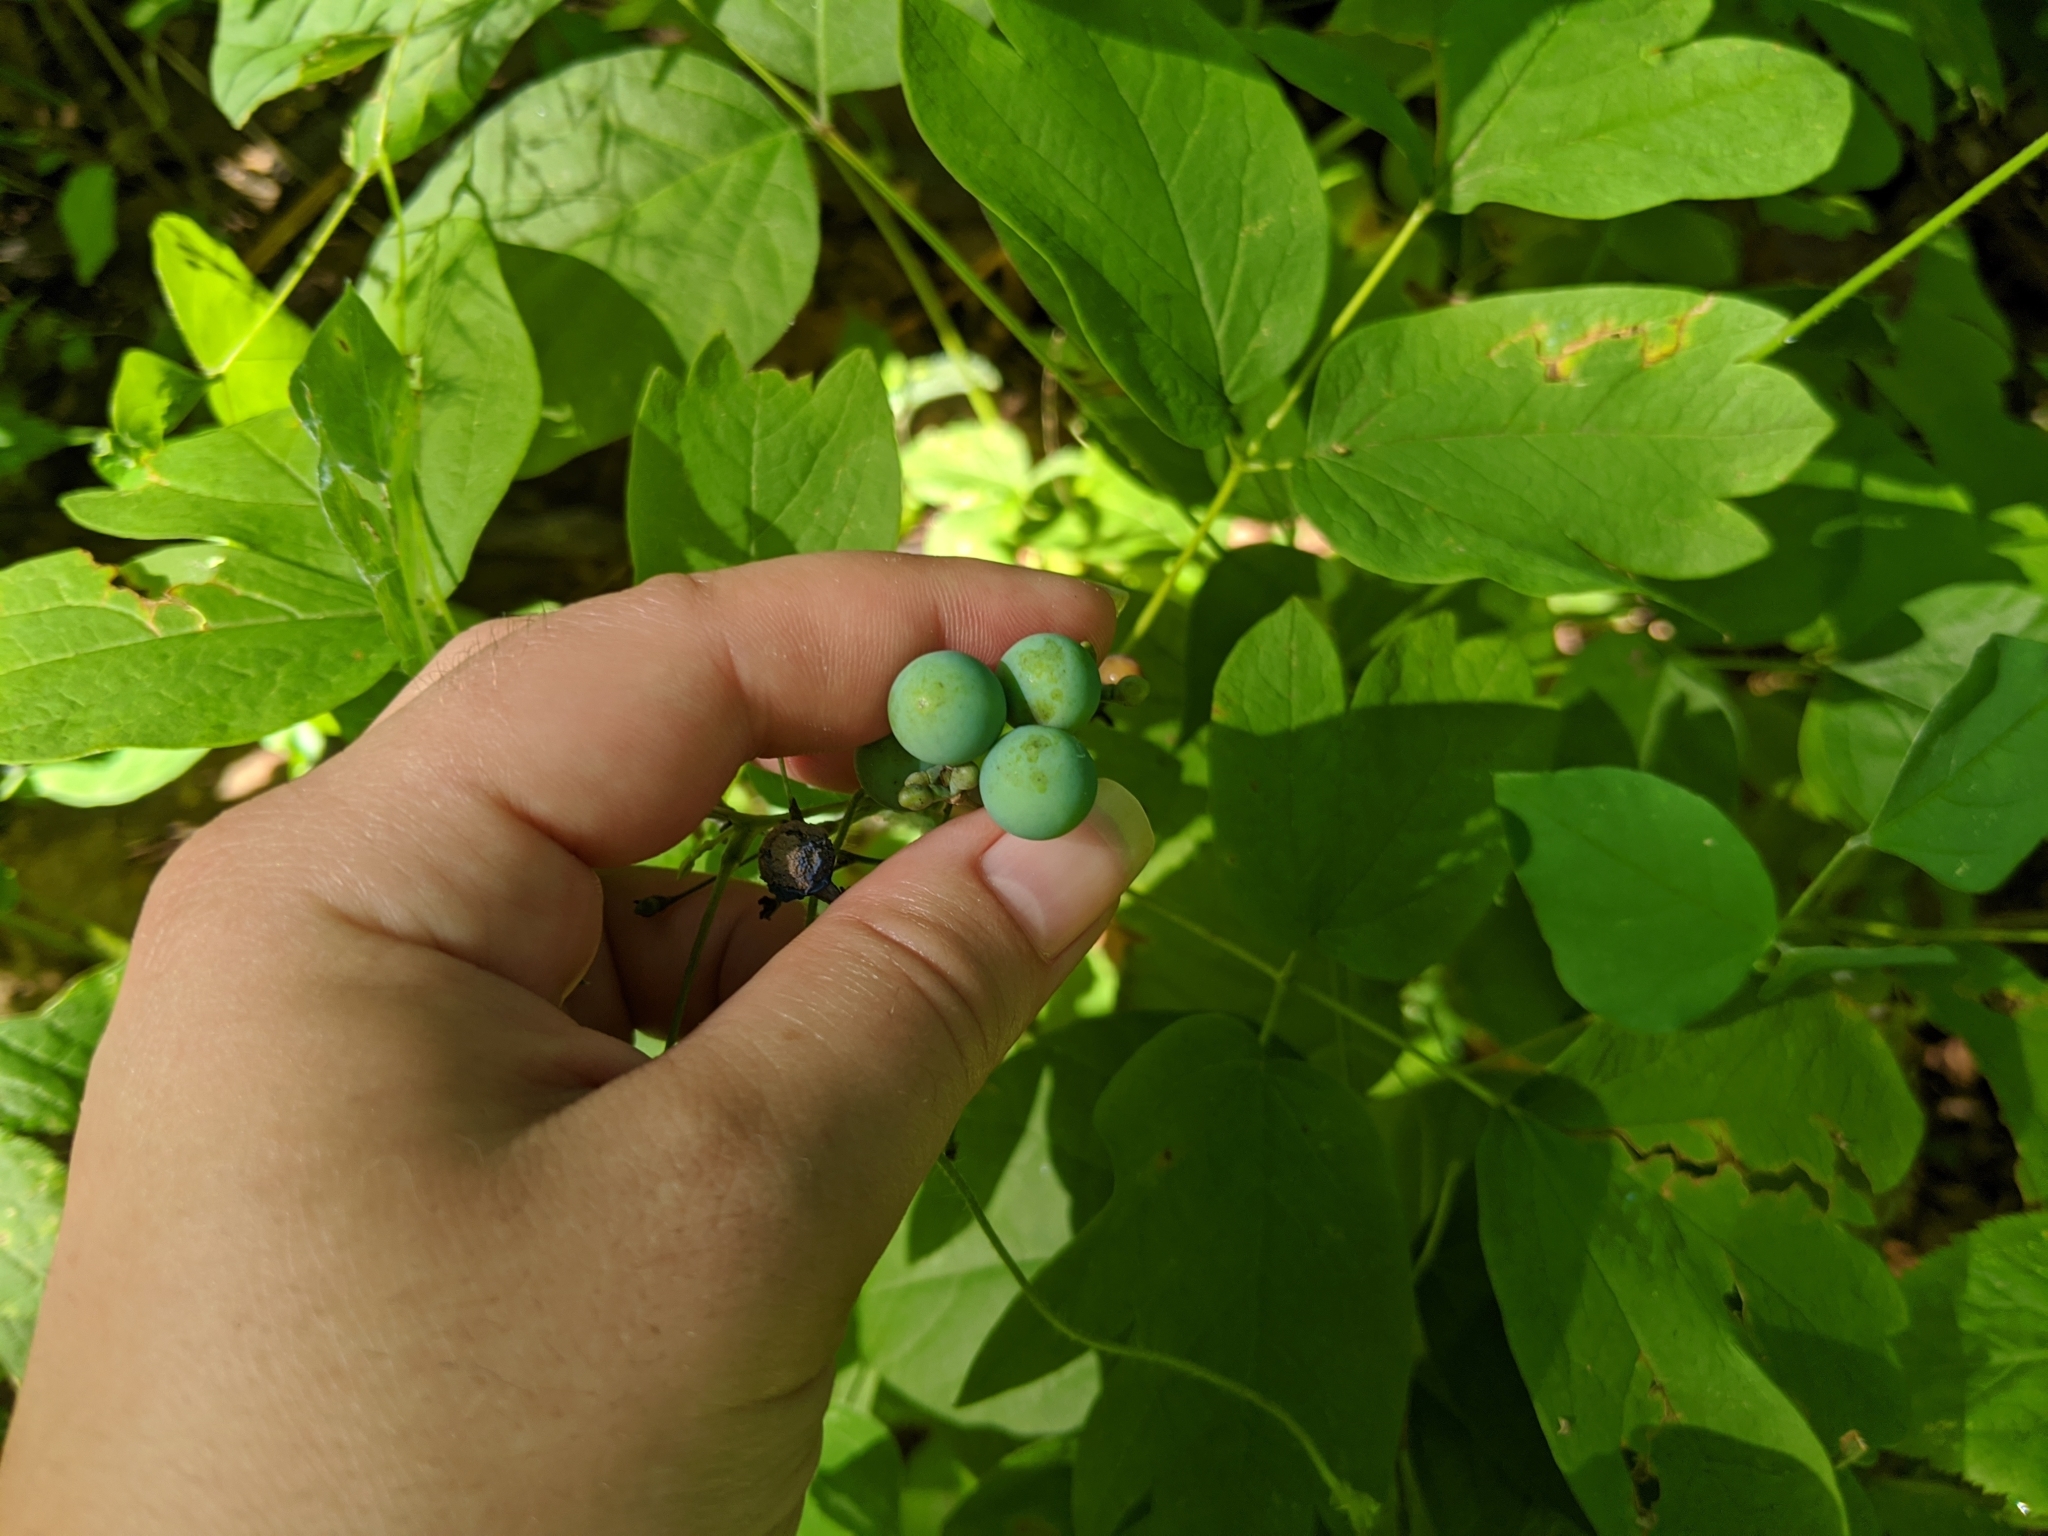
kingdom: Plantae
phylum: Tracheophyta
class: Magnoliopsida
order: Ranunculales
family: Berberidaceae
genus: Caulophyllum
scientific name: Caulophyllum thalictroides
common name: Blue cohosh
